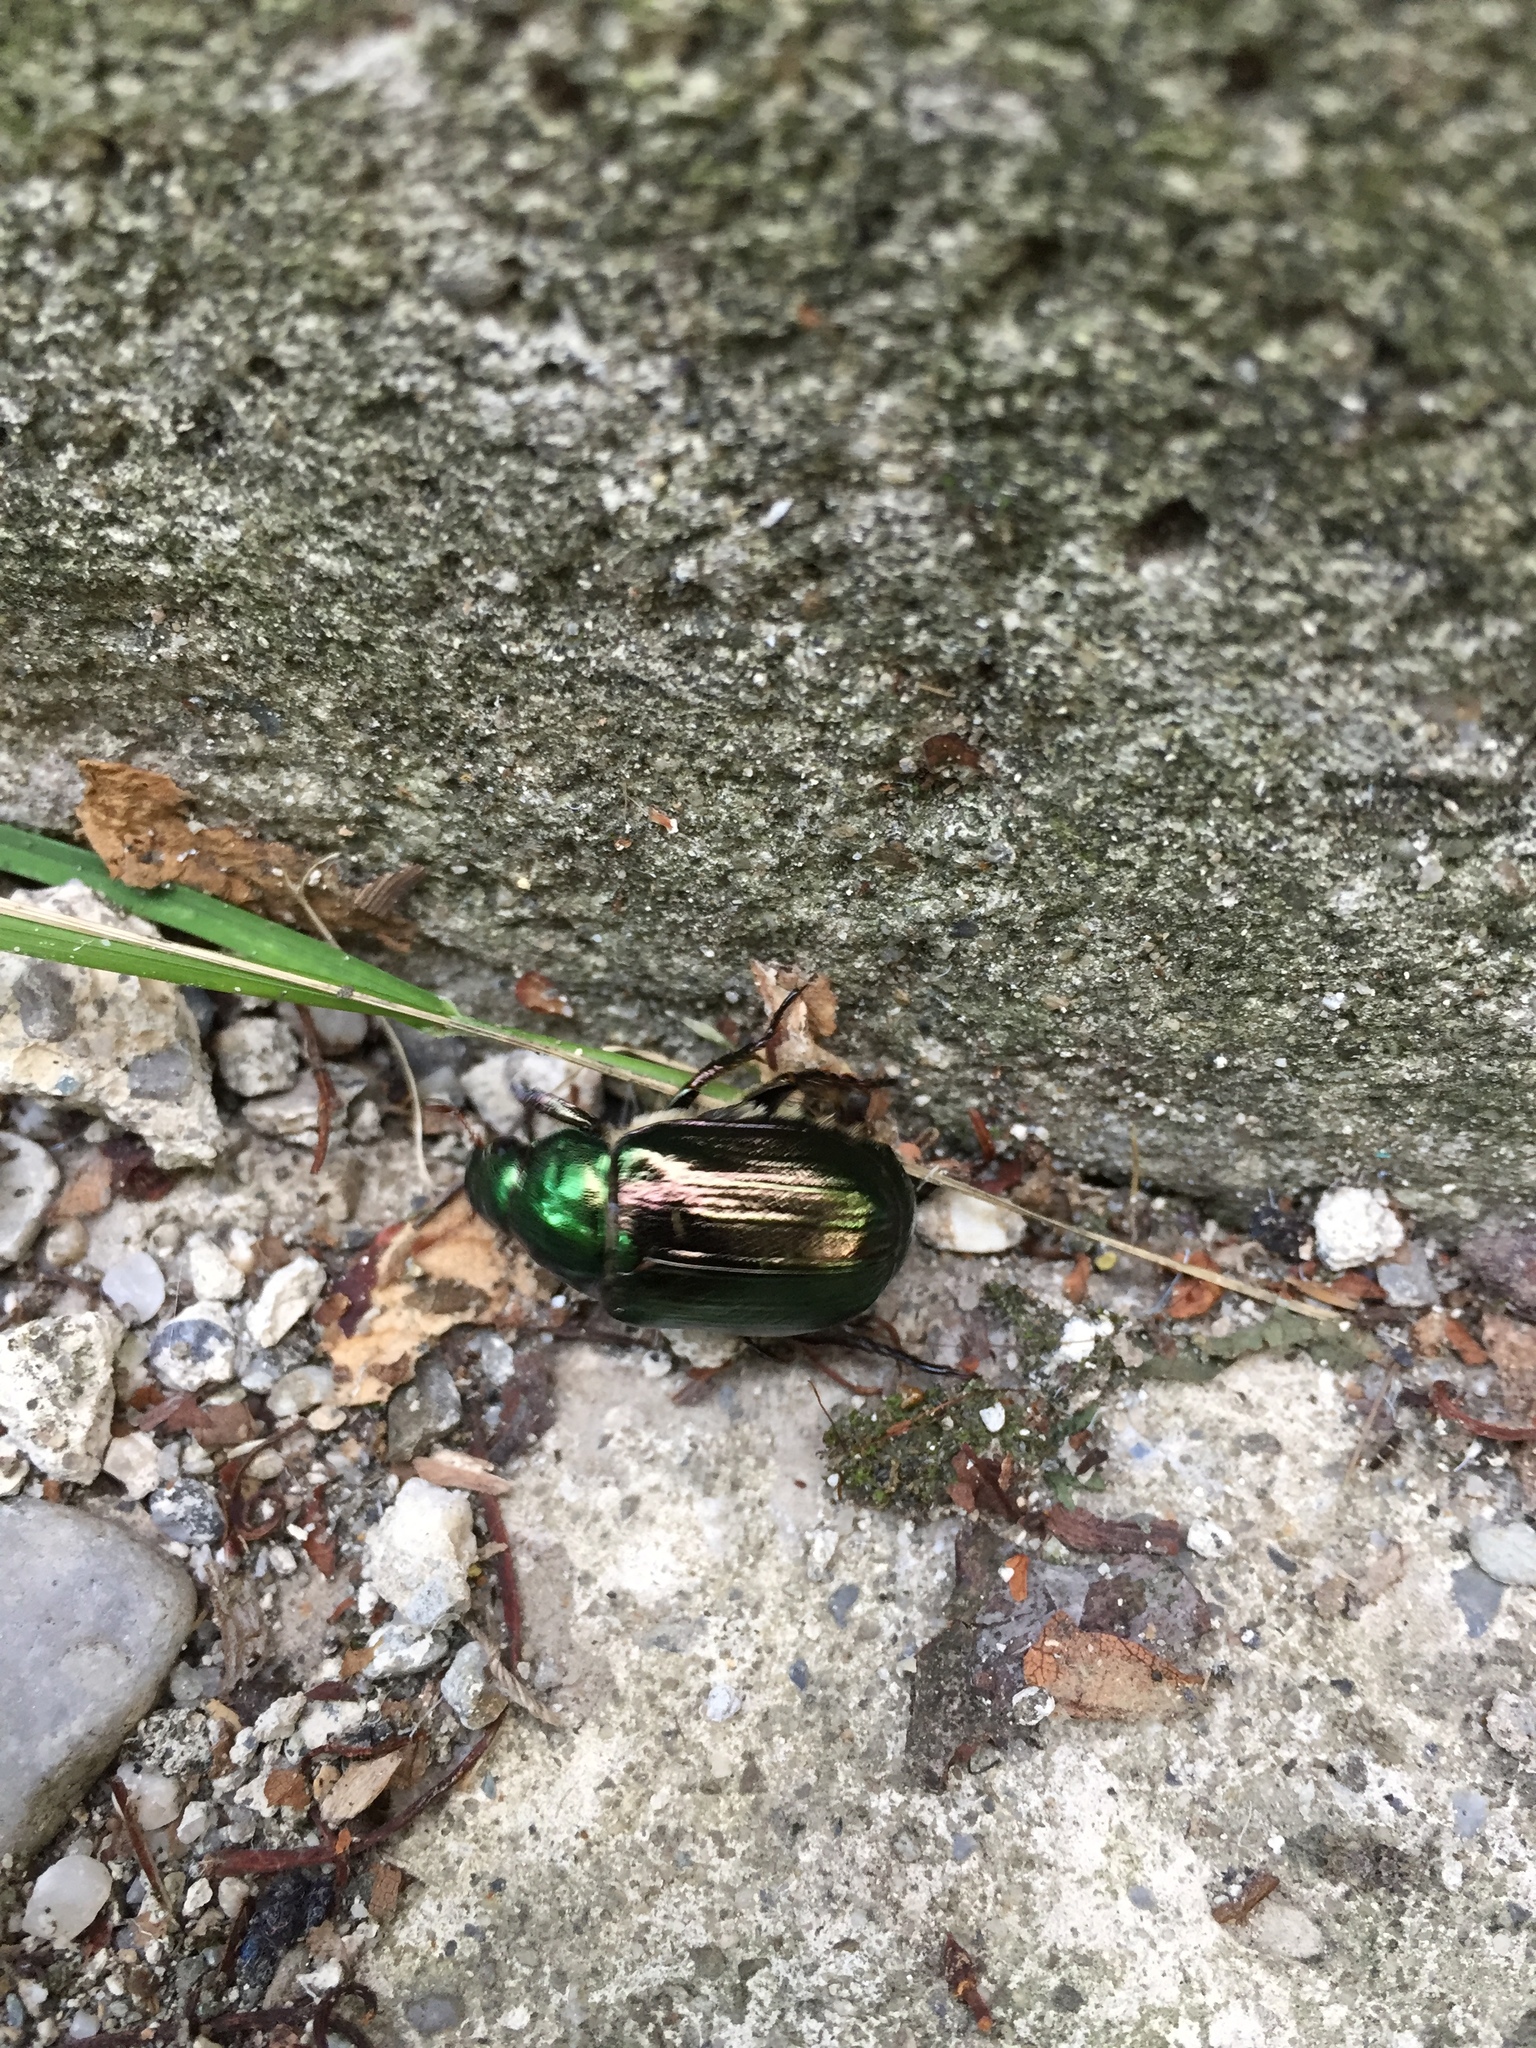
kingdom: Animalia
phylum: Arthropoda
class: Insecta
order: Coleoptera
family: Scarabaeidae
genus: Mimela
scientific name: Mimela aurata
